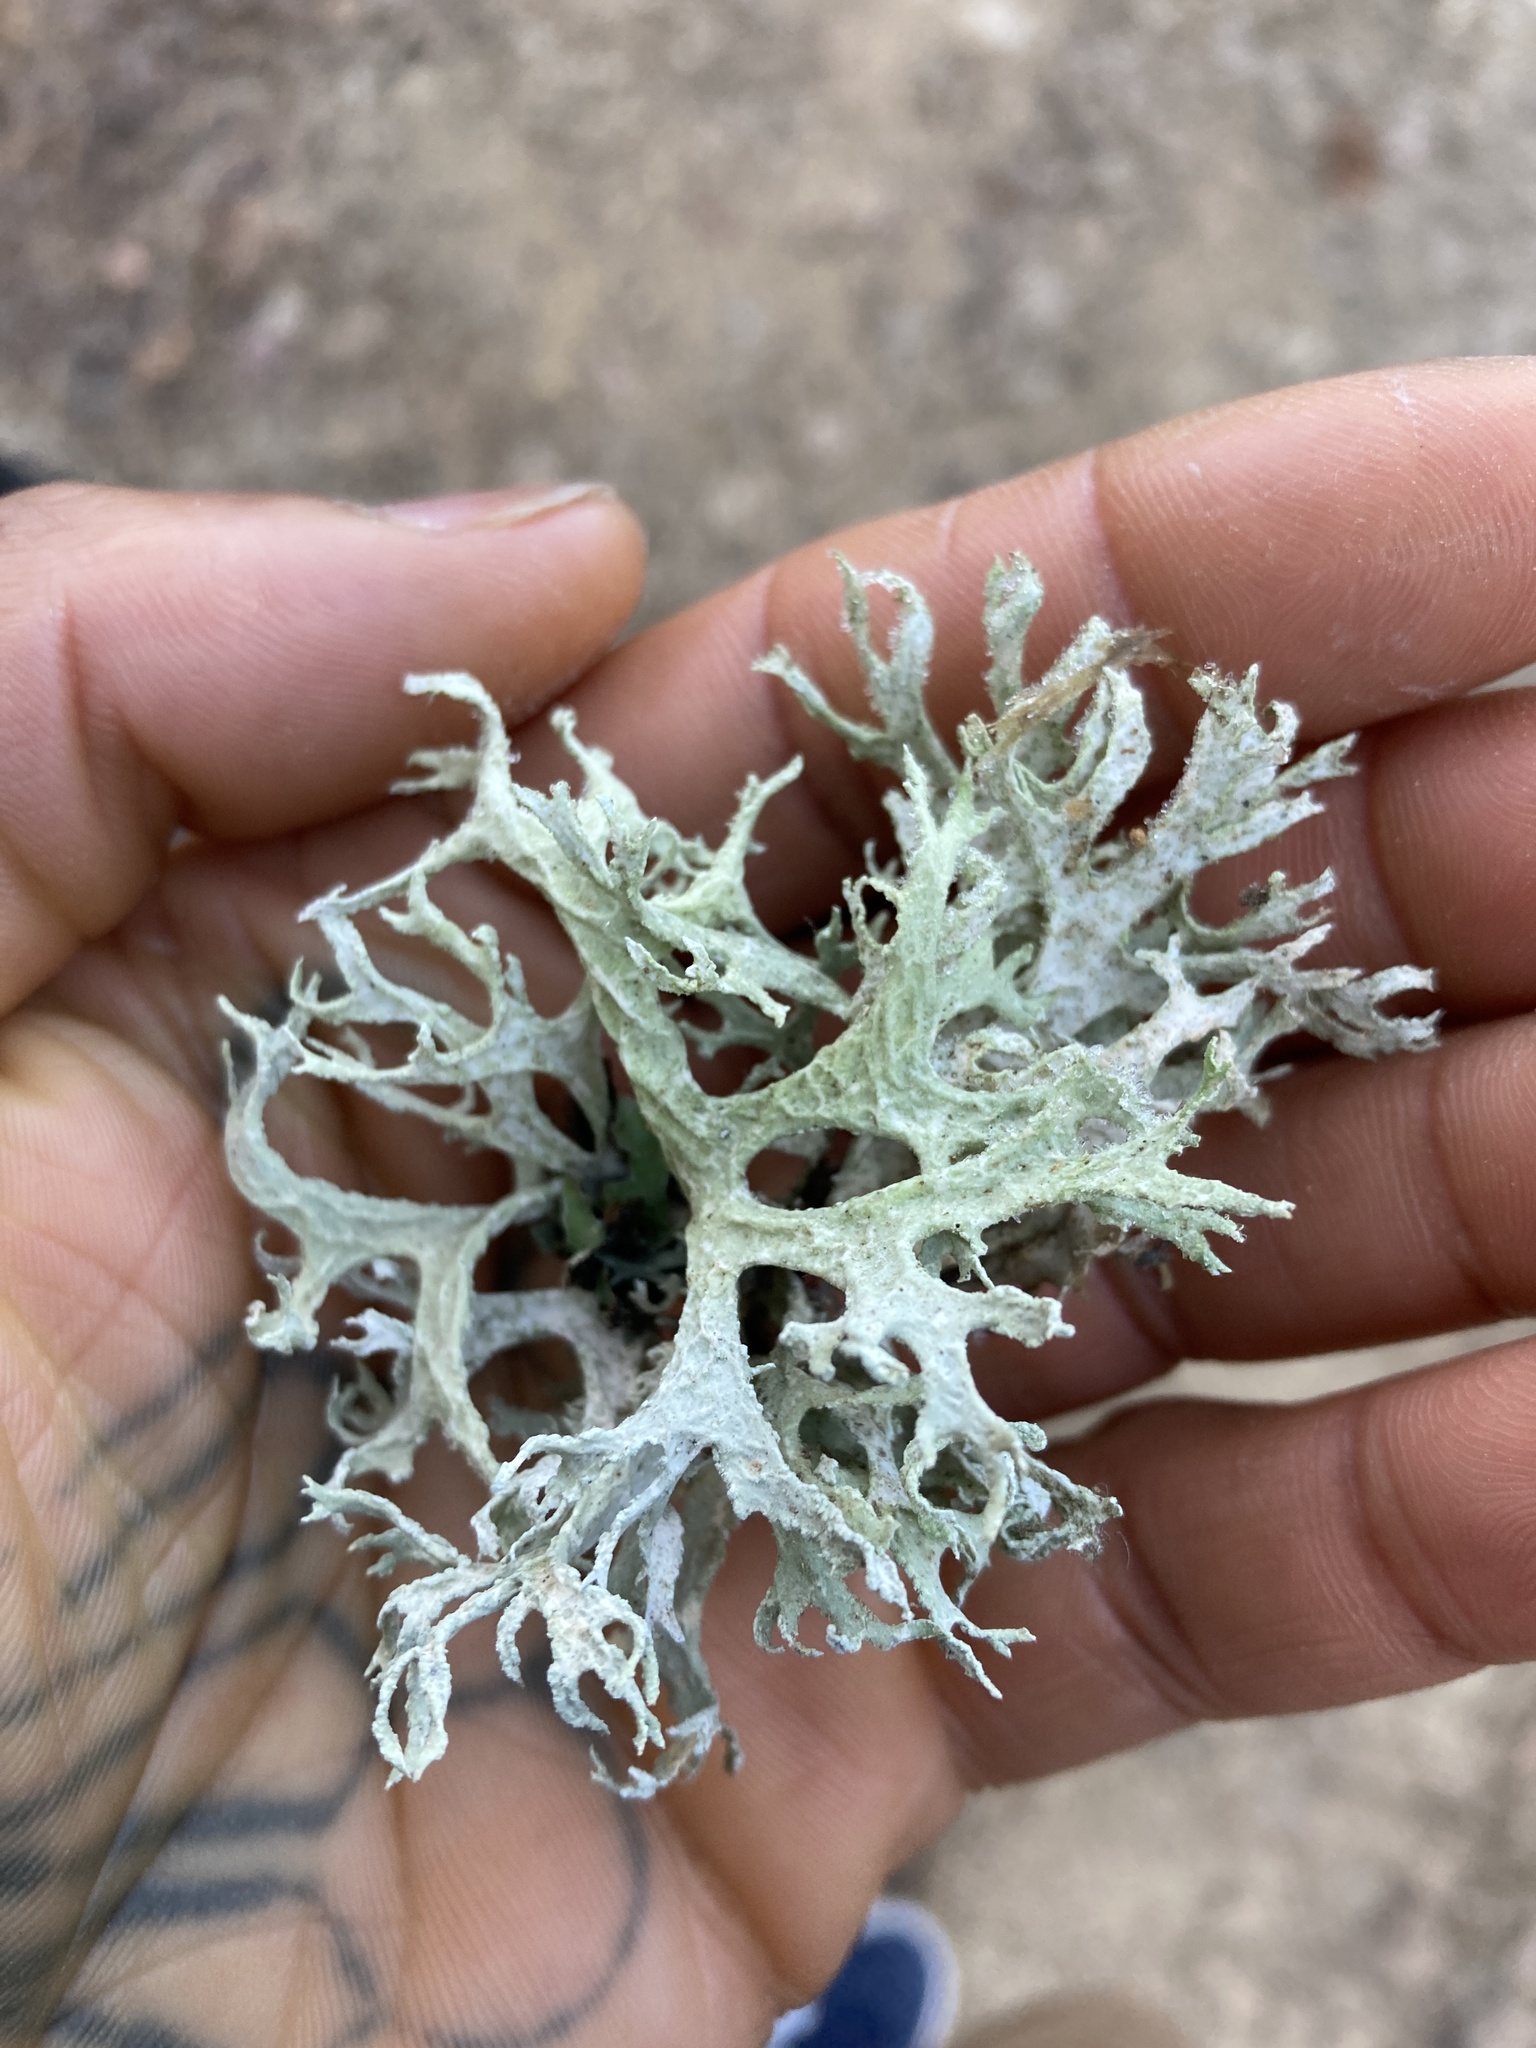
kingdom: Fungi
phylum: Ascomycota
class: Lecanoromycetes
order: Lecanorales
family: Parmeliaceae
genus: Evernia
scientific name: Evernia prunastri
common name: Oak moss
